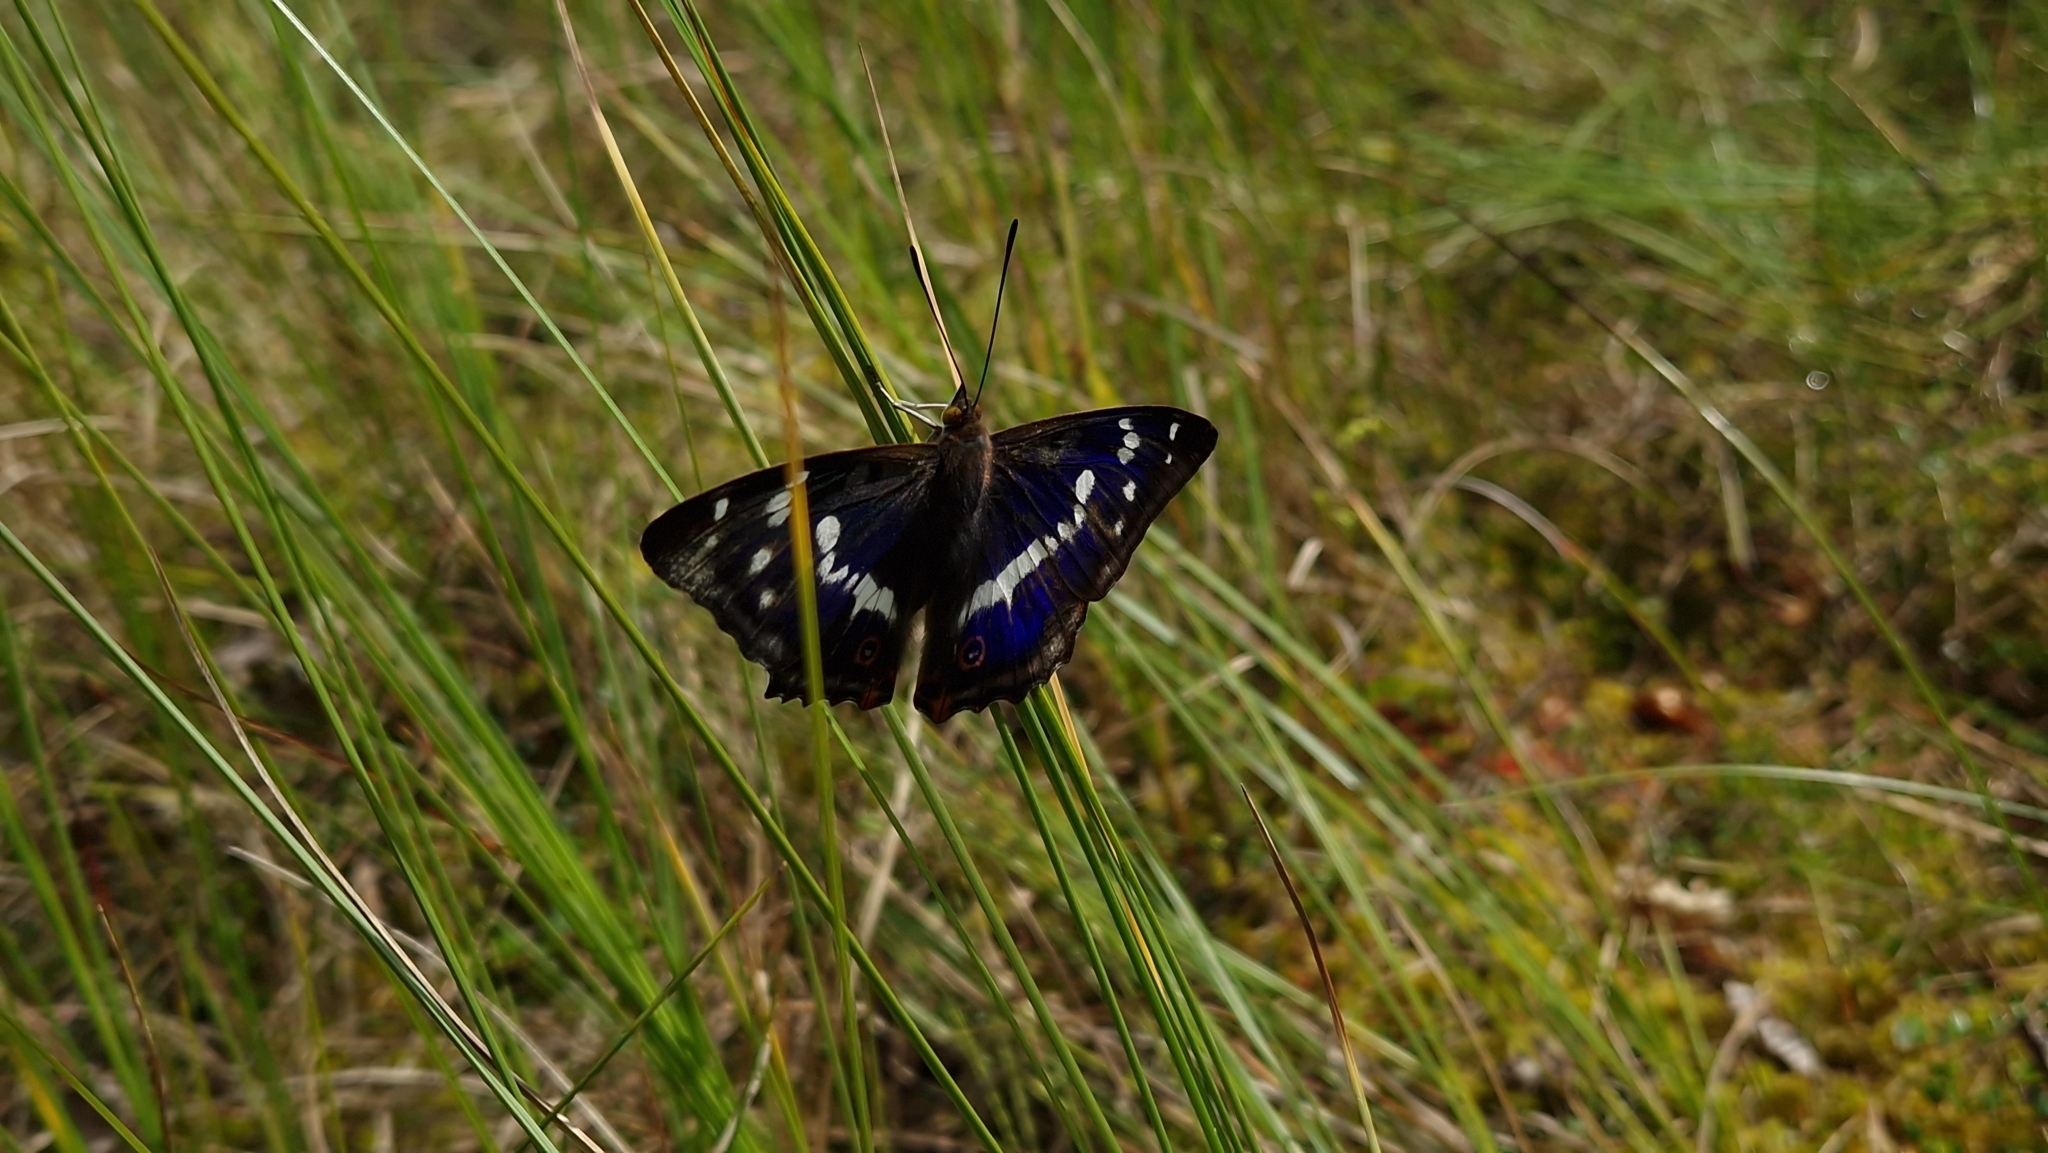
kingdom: Animalia
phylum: Arthropoda
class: Insecta
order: Lepidoptera
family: Nymphalidae
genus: Apatura
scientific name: Apatura iris
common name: Purple emperor
